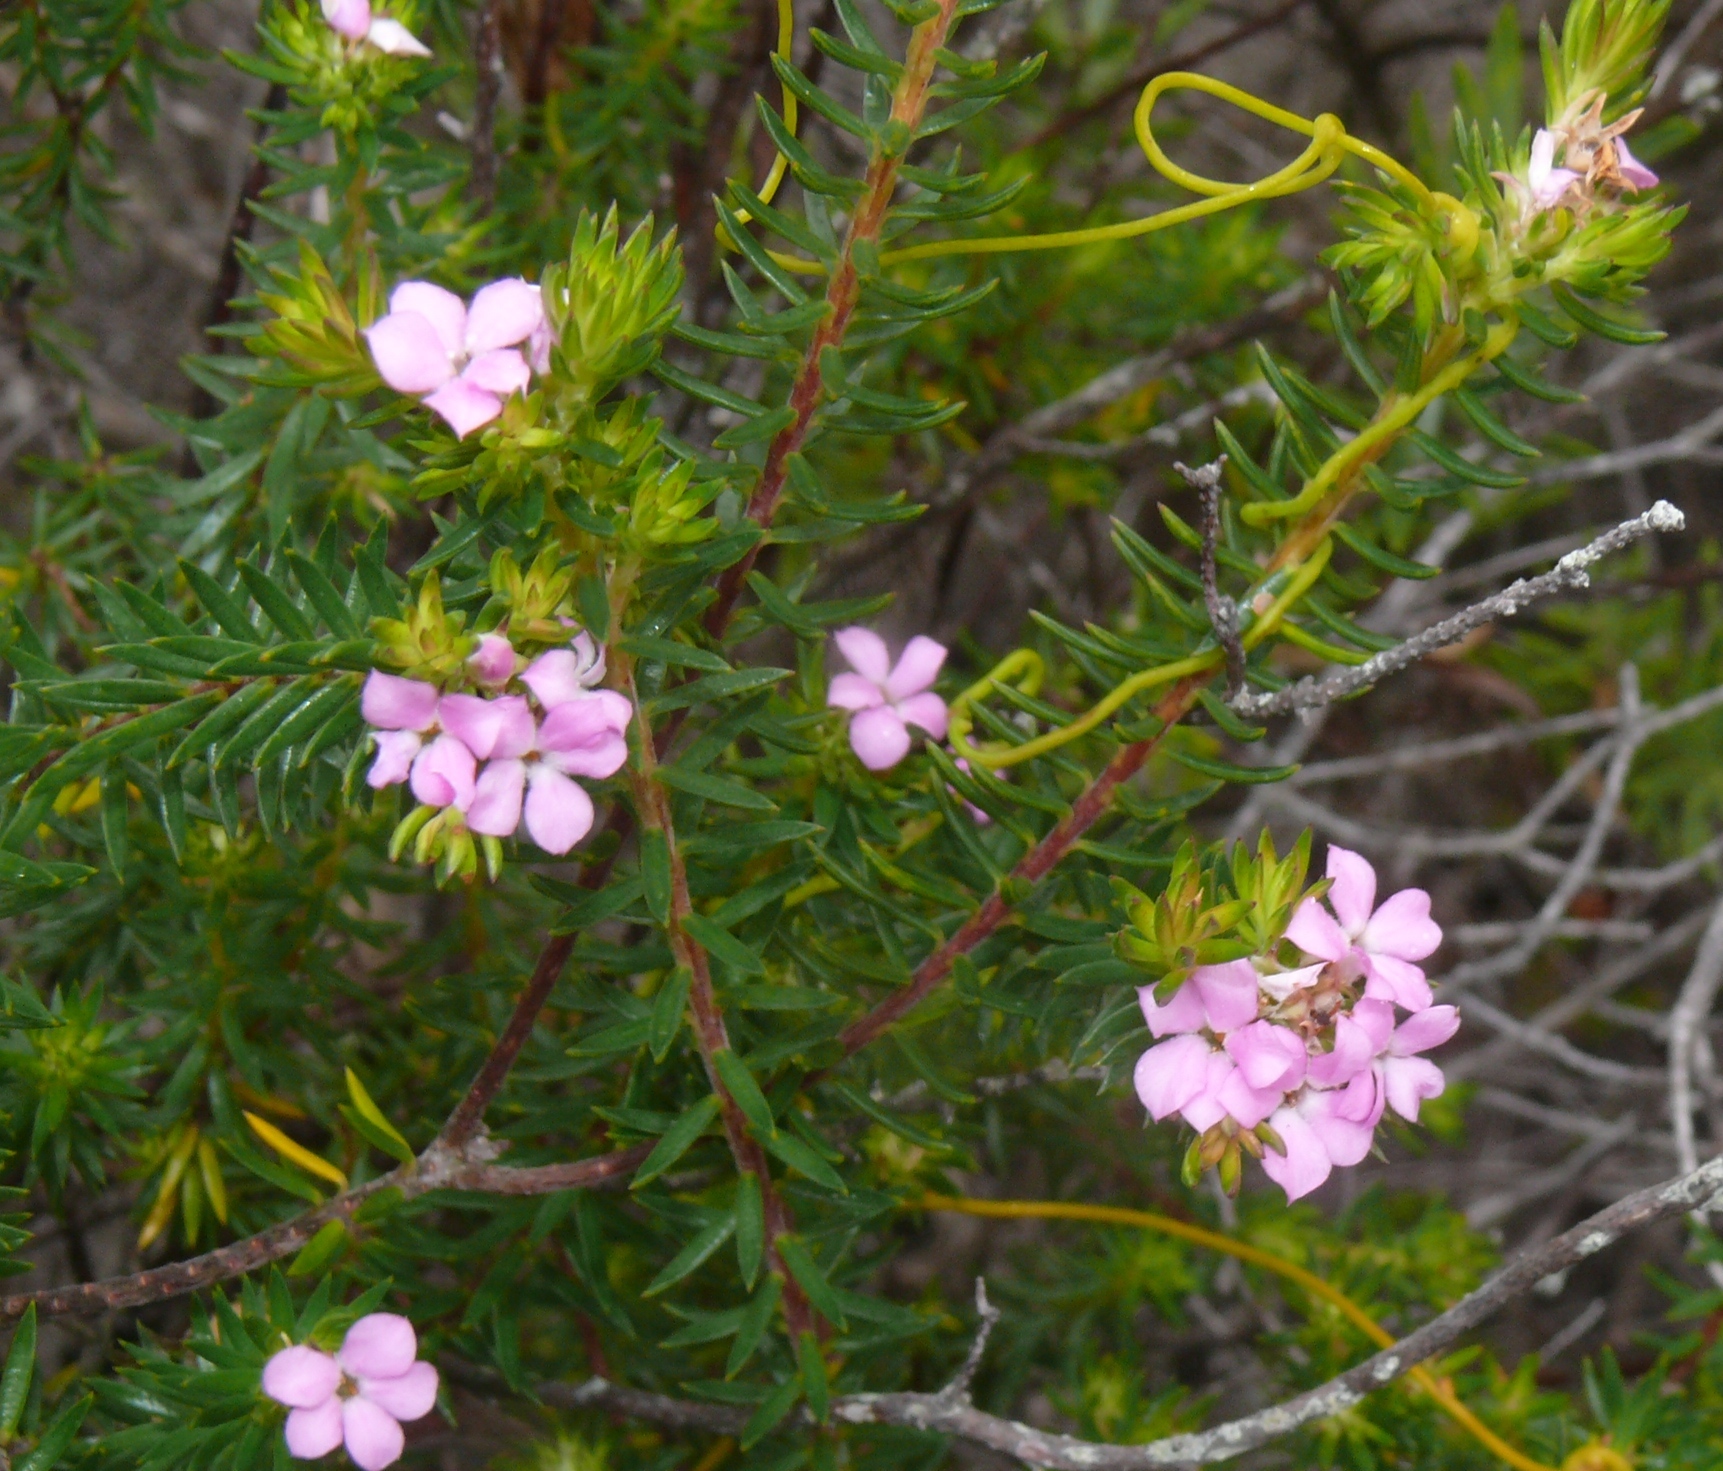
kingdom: Plantae
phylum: Tracheophyta
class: Magnoliopsida
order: Sapindales
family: Rutaceae
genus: Acmadenia
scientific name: Acmadenia alternifolia
